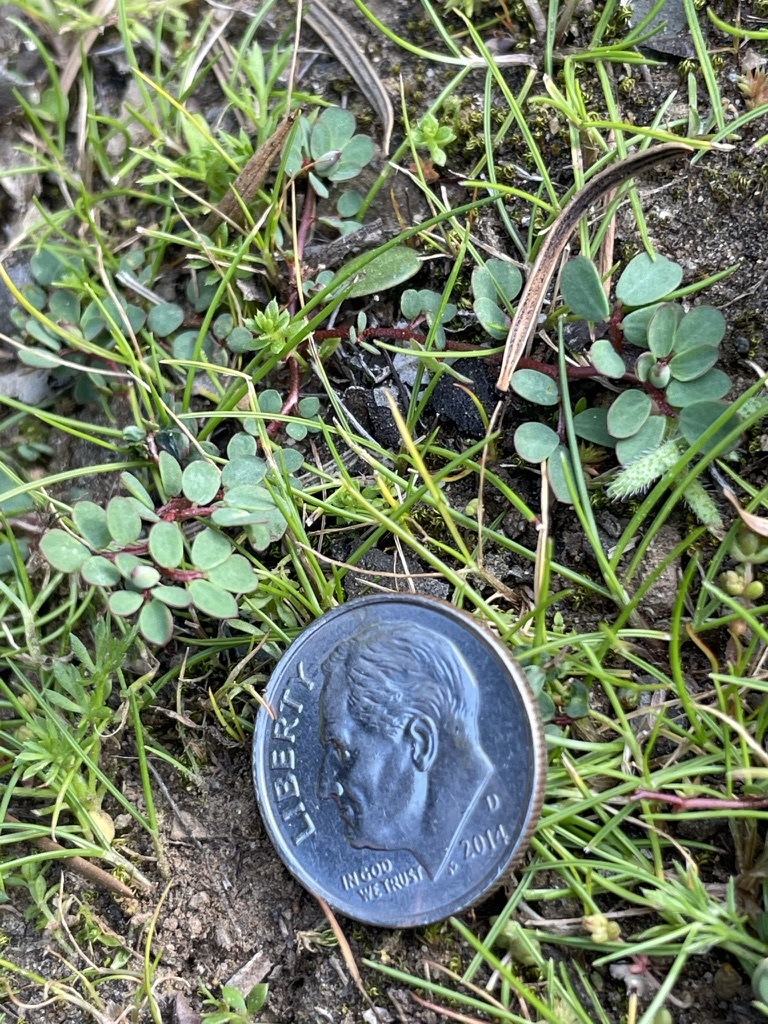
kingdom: Plantae
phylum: Tracheophyta
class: Magnoliopsida
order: Fabales
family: Fabaceae
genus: Acmispon
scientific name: Acmispon wrangelianus
